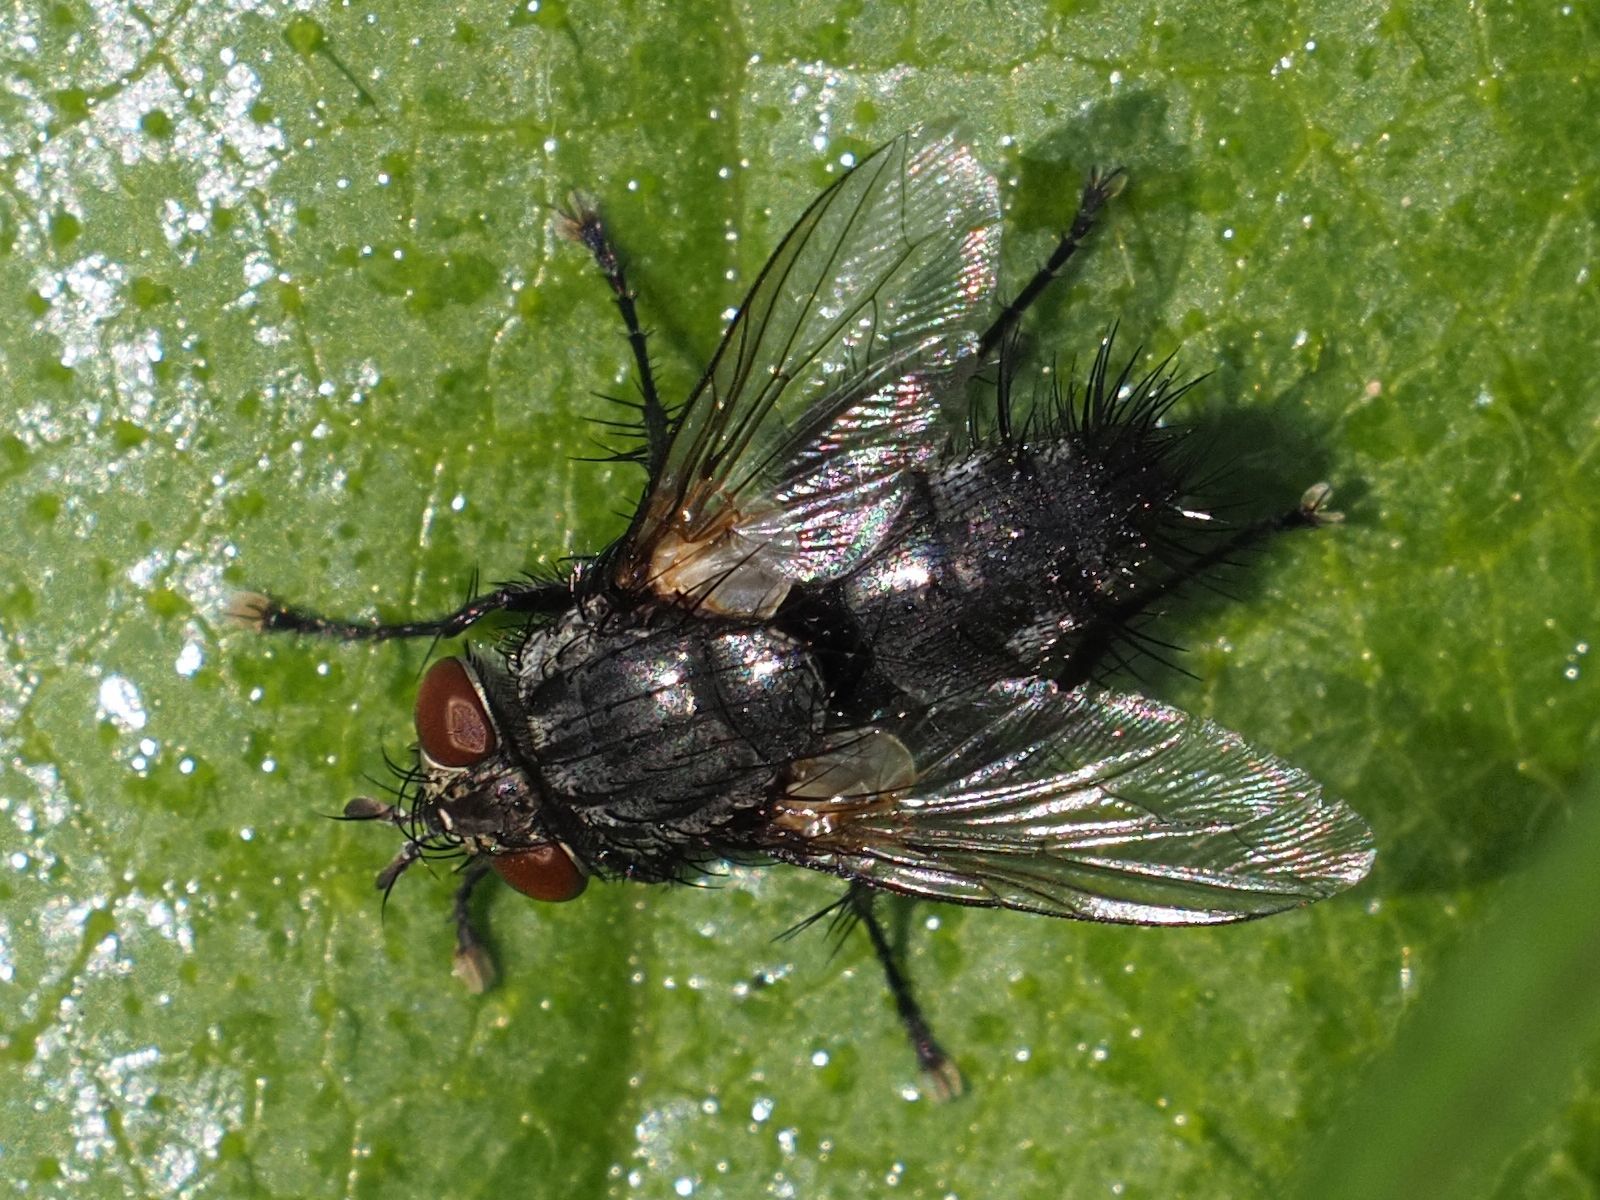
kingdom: Animalia
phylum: Arthropoda
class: Insecta
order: Diptera
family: Tachinidae
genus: Voria
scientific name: Voria ruralis
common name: Parasitic fly
